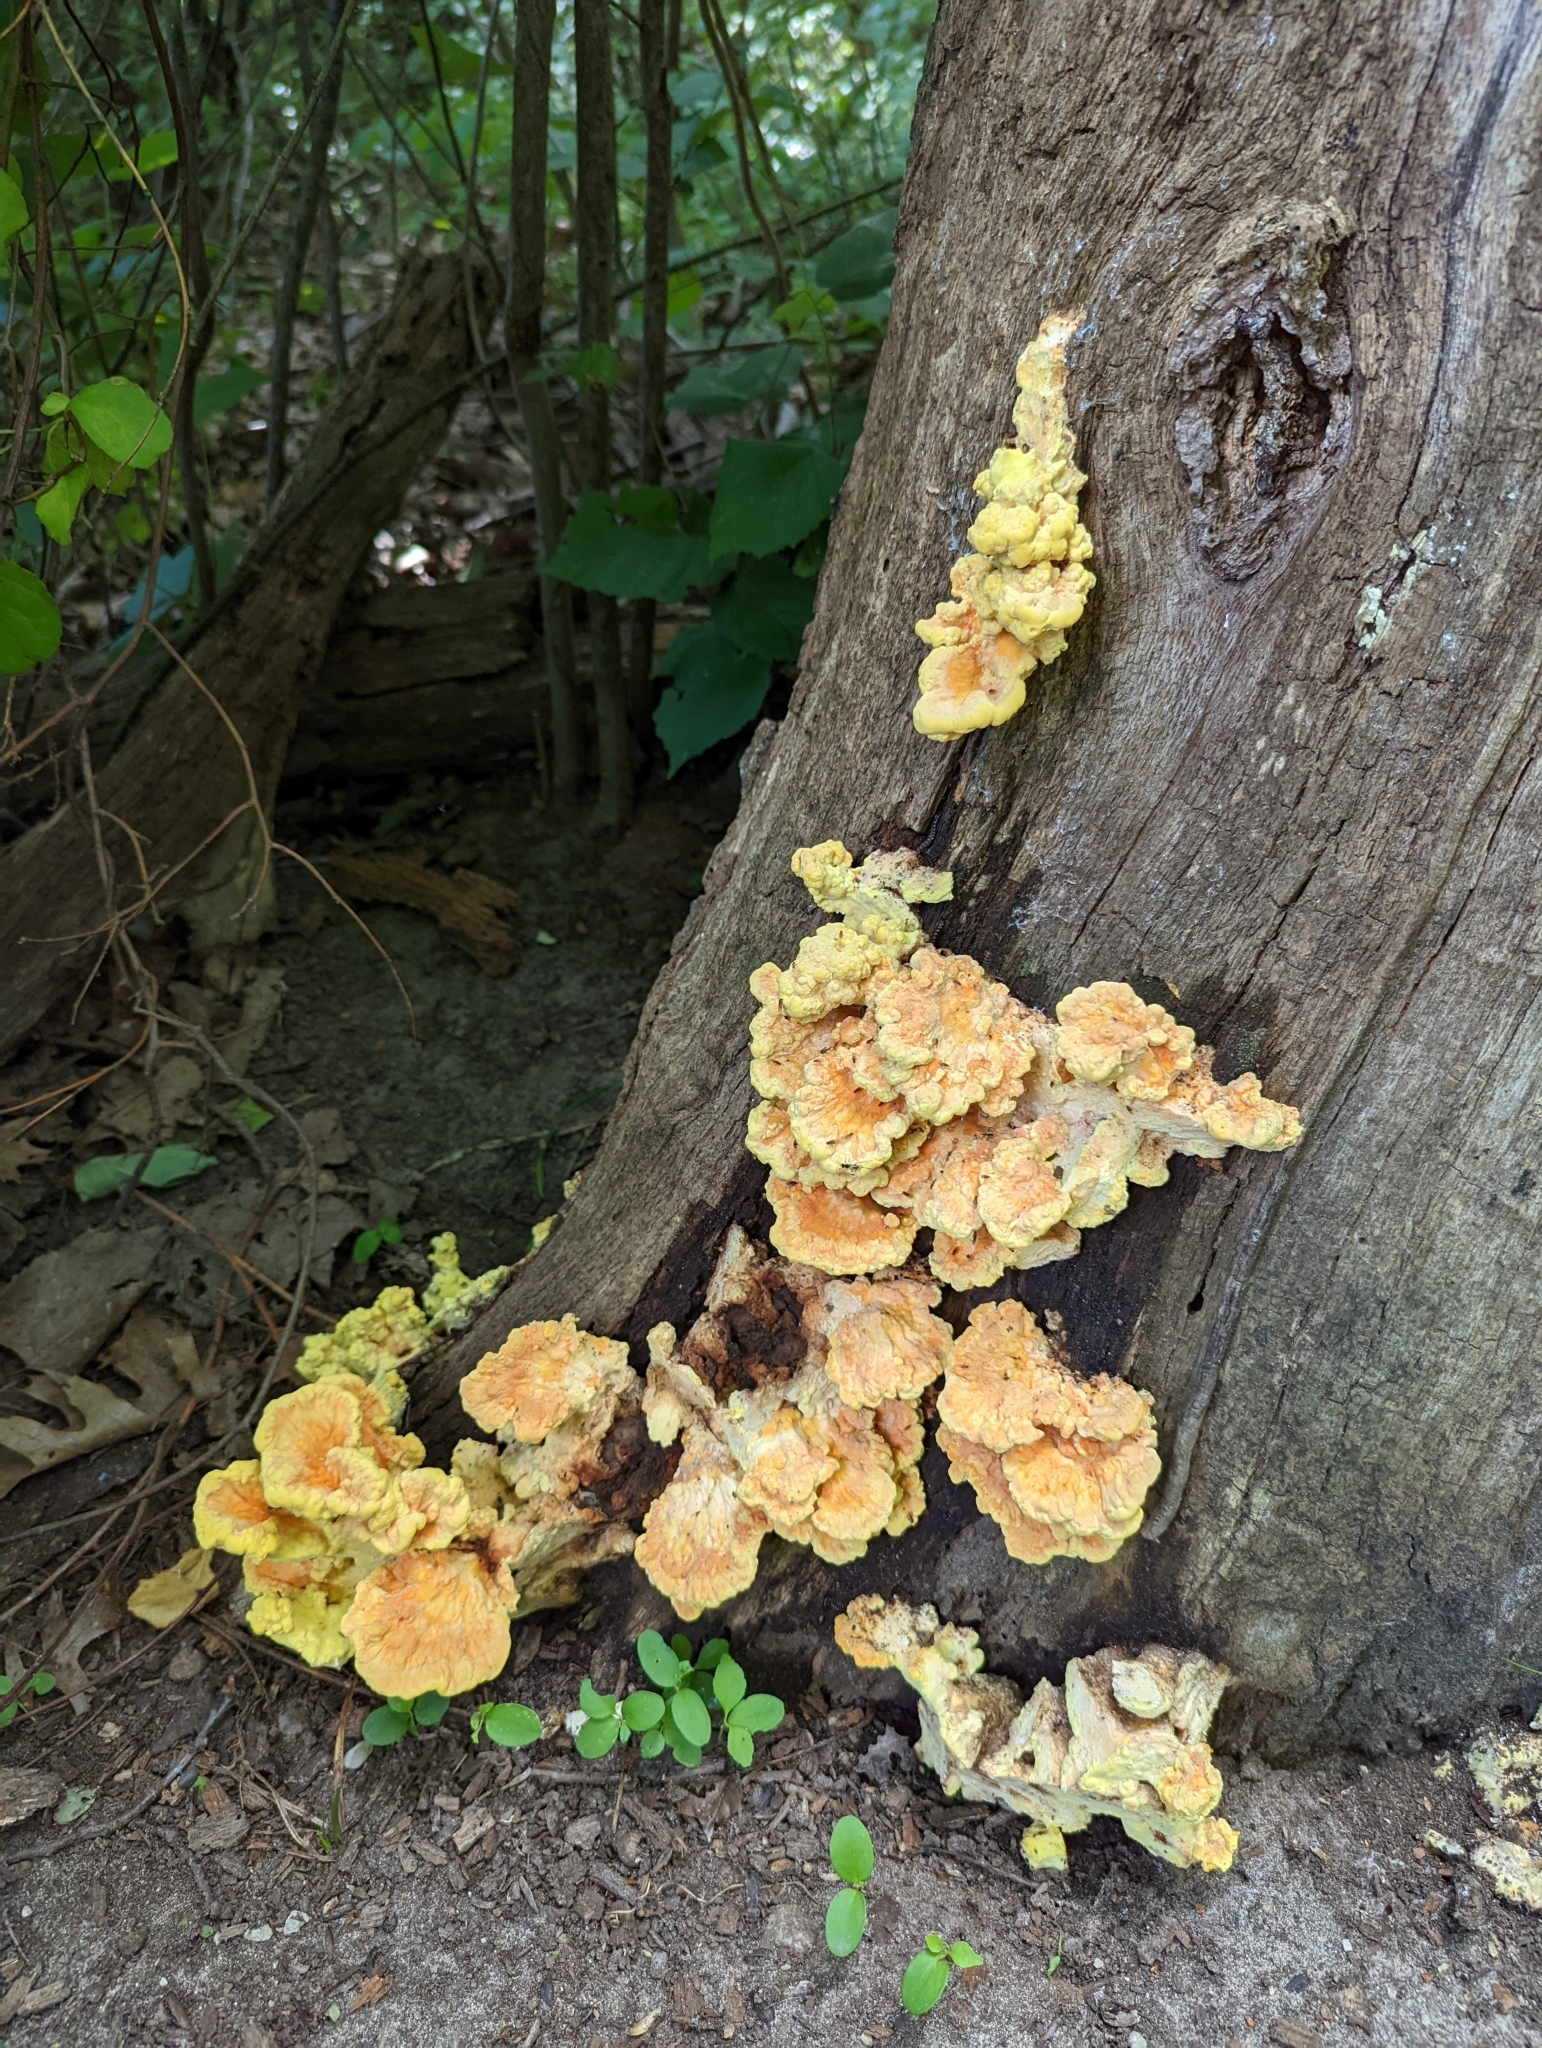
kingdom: Fungi
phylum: Basidiomycota
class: Agaricomycetes
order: Polyporales
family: Laetiporaceae
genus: Laetiporus
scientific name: Laetiporus sulphureus
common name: Chicken of the woods
